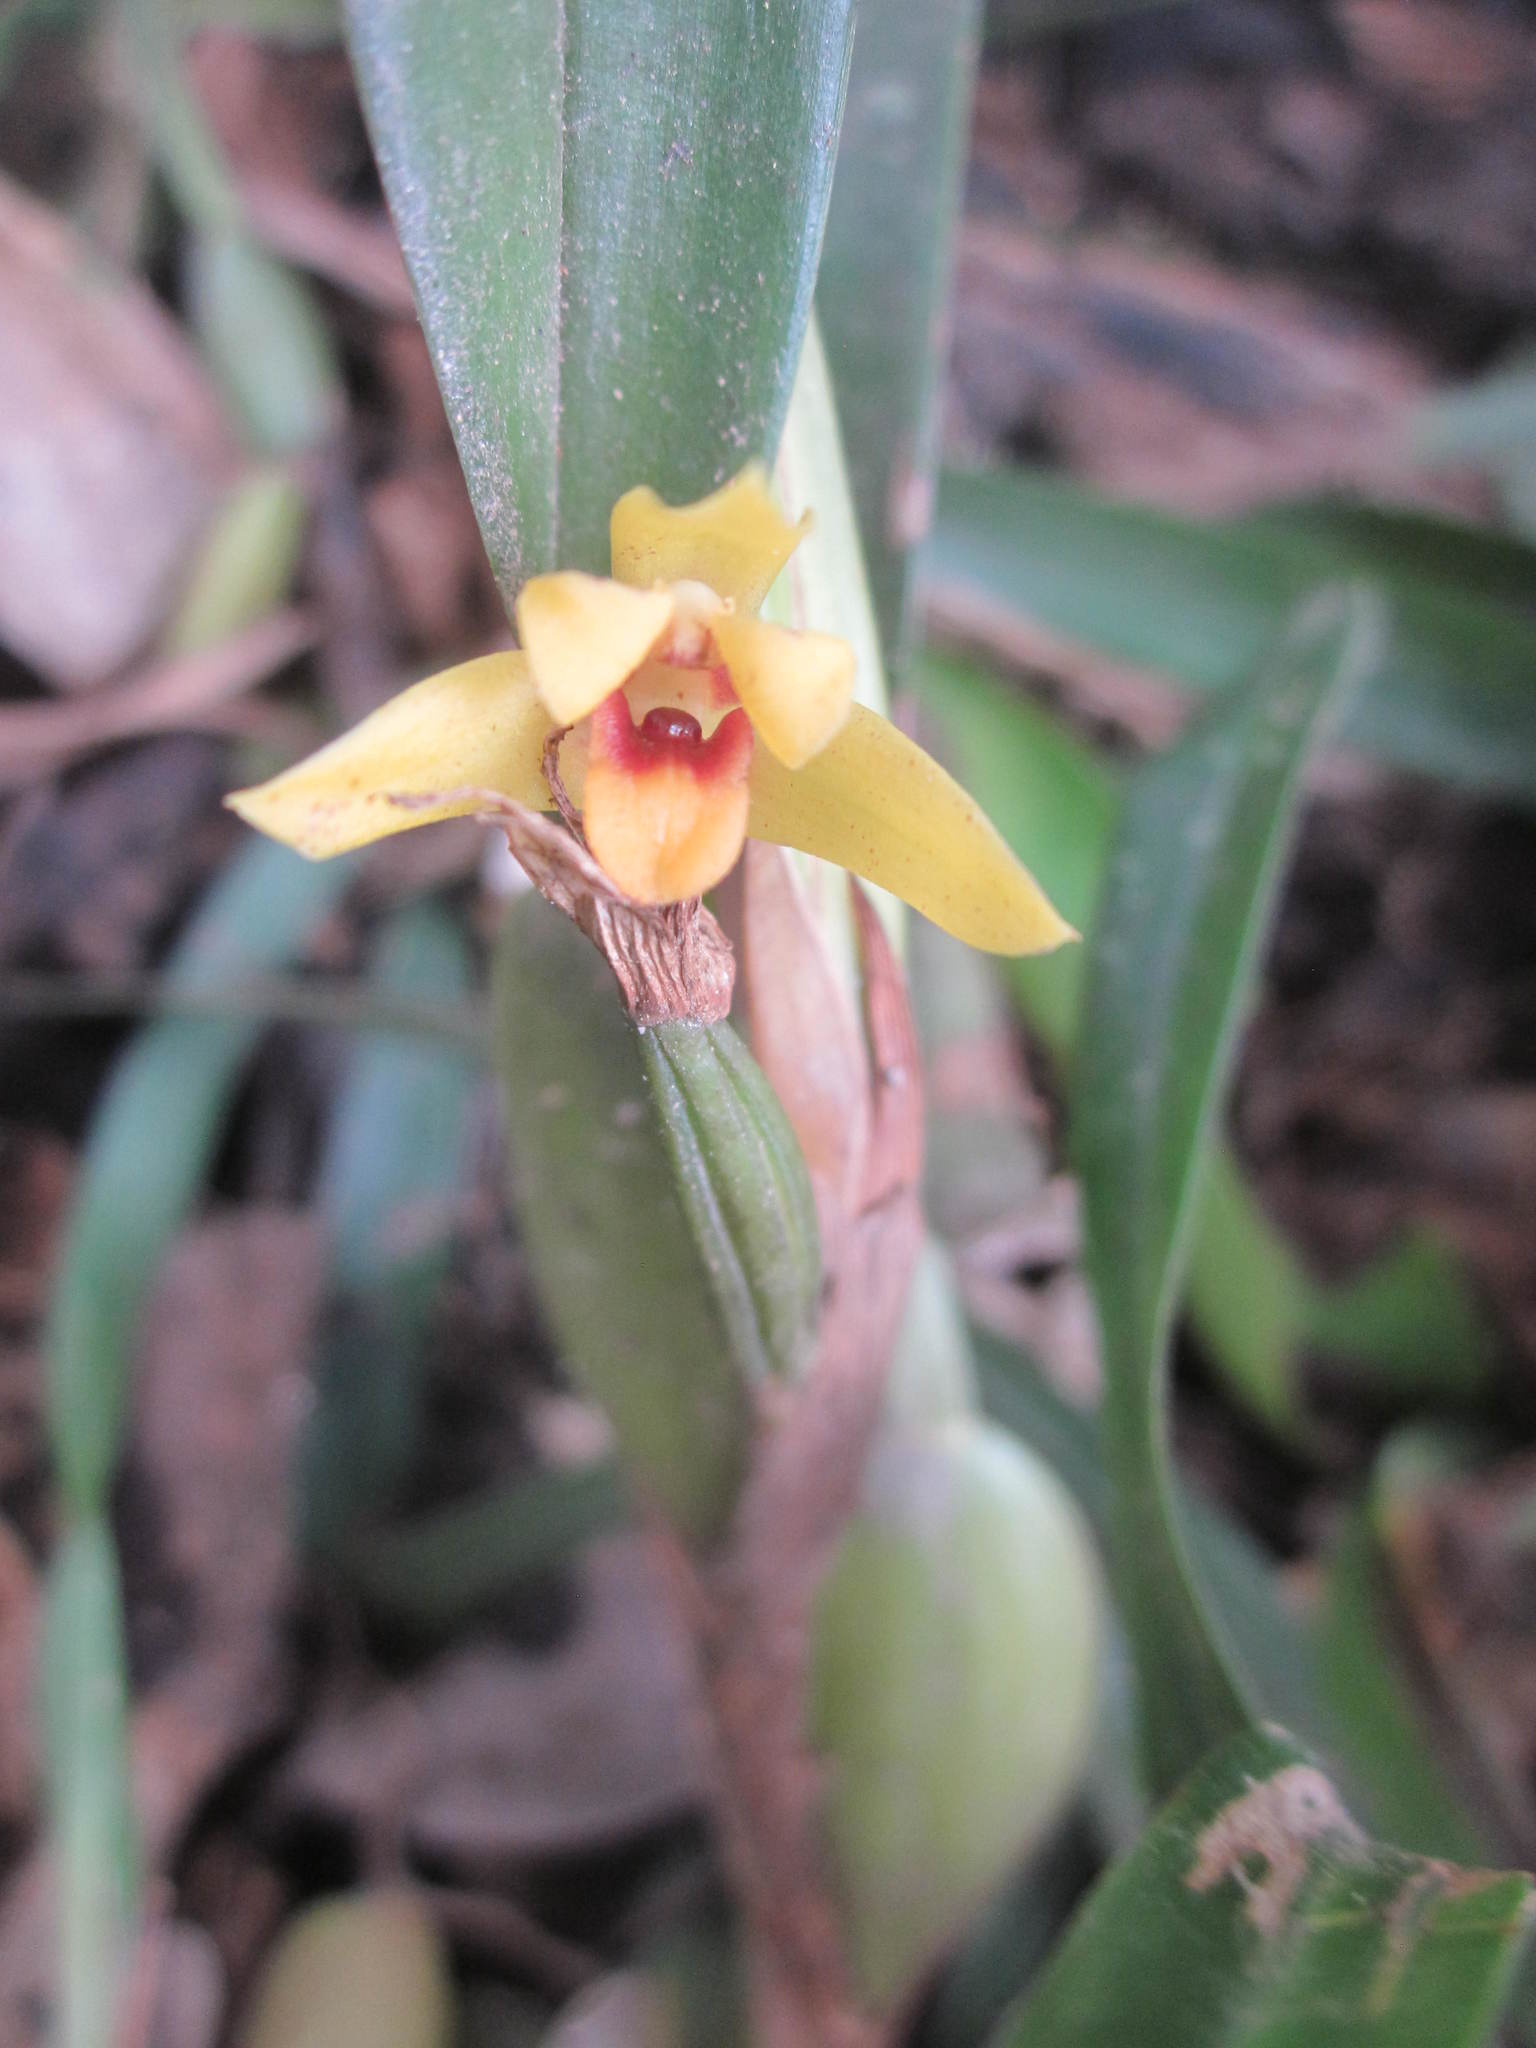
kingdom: Plantae
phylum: Tracheophyta
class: Liliopsida
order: Asparagales
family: Orchidaceae
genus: Maxillaria
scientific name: Maxillaria variabilis
